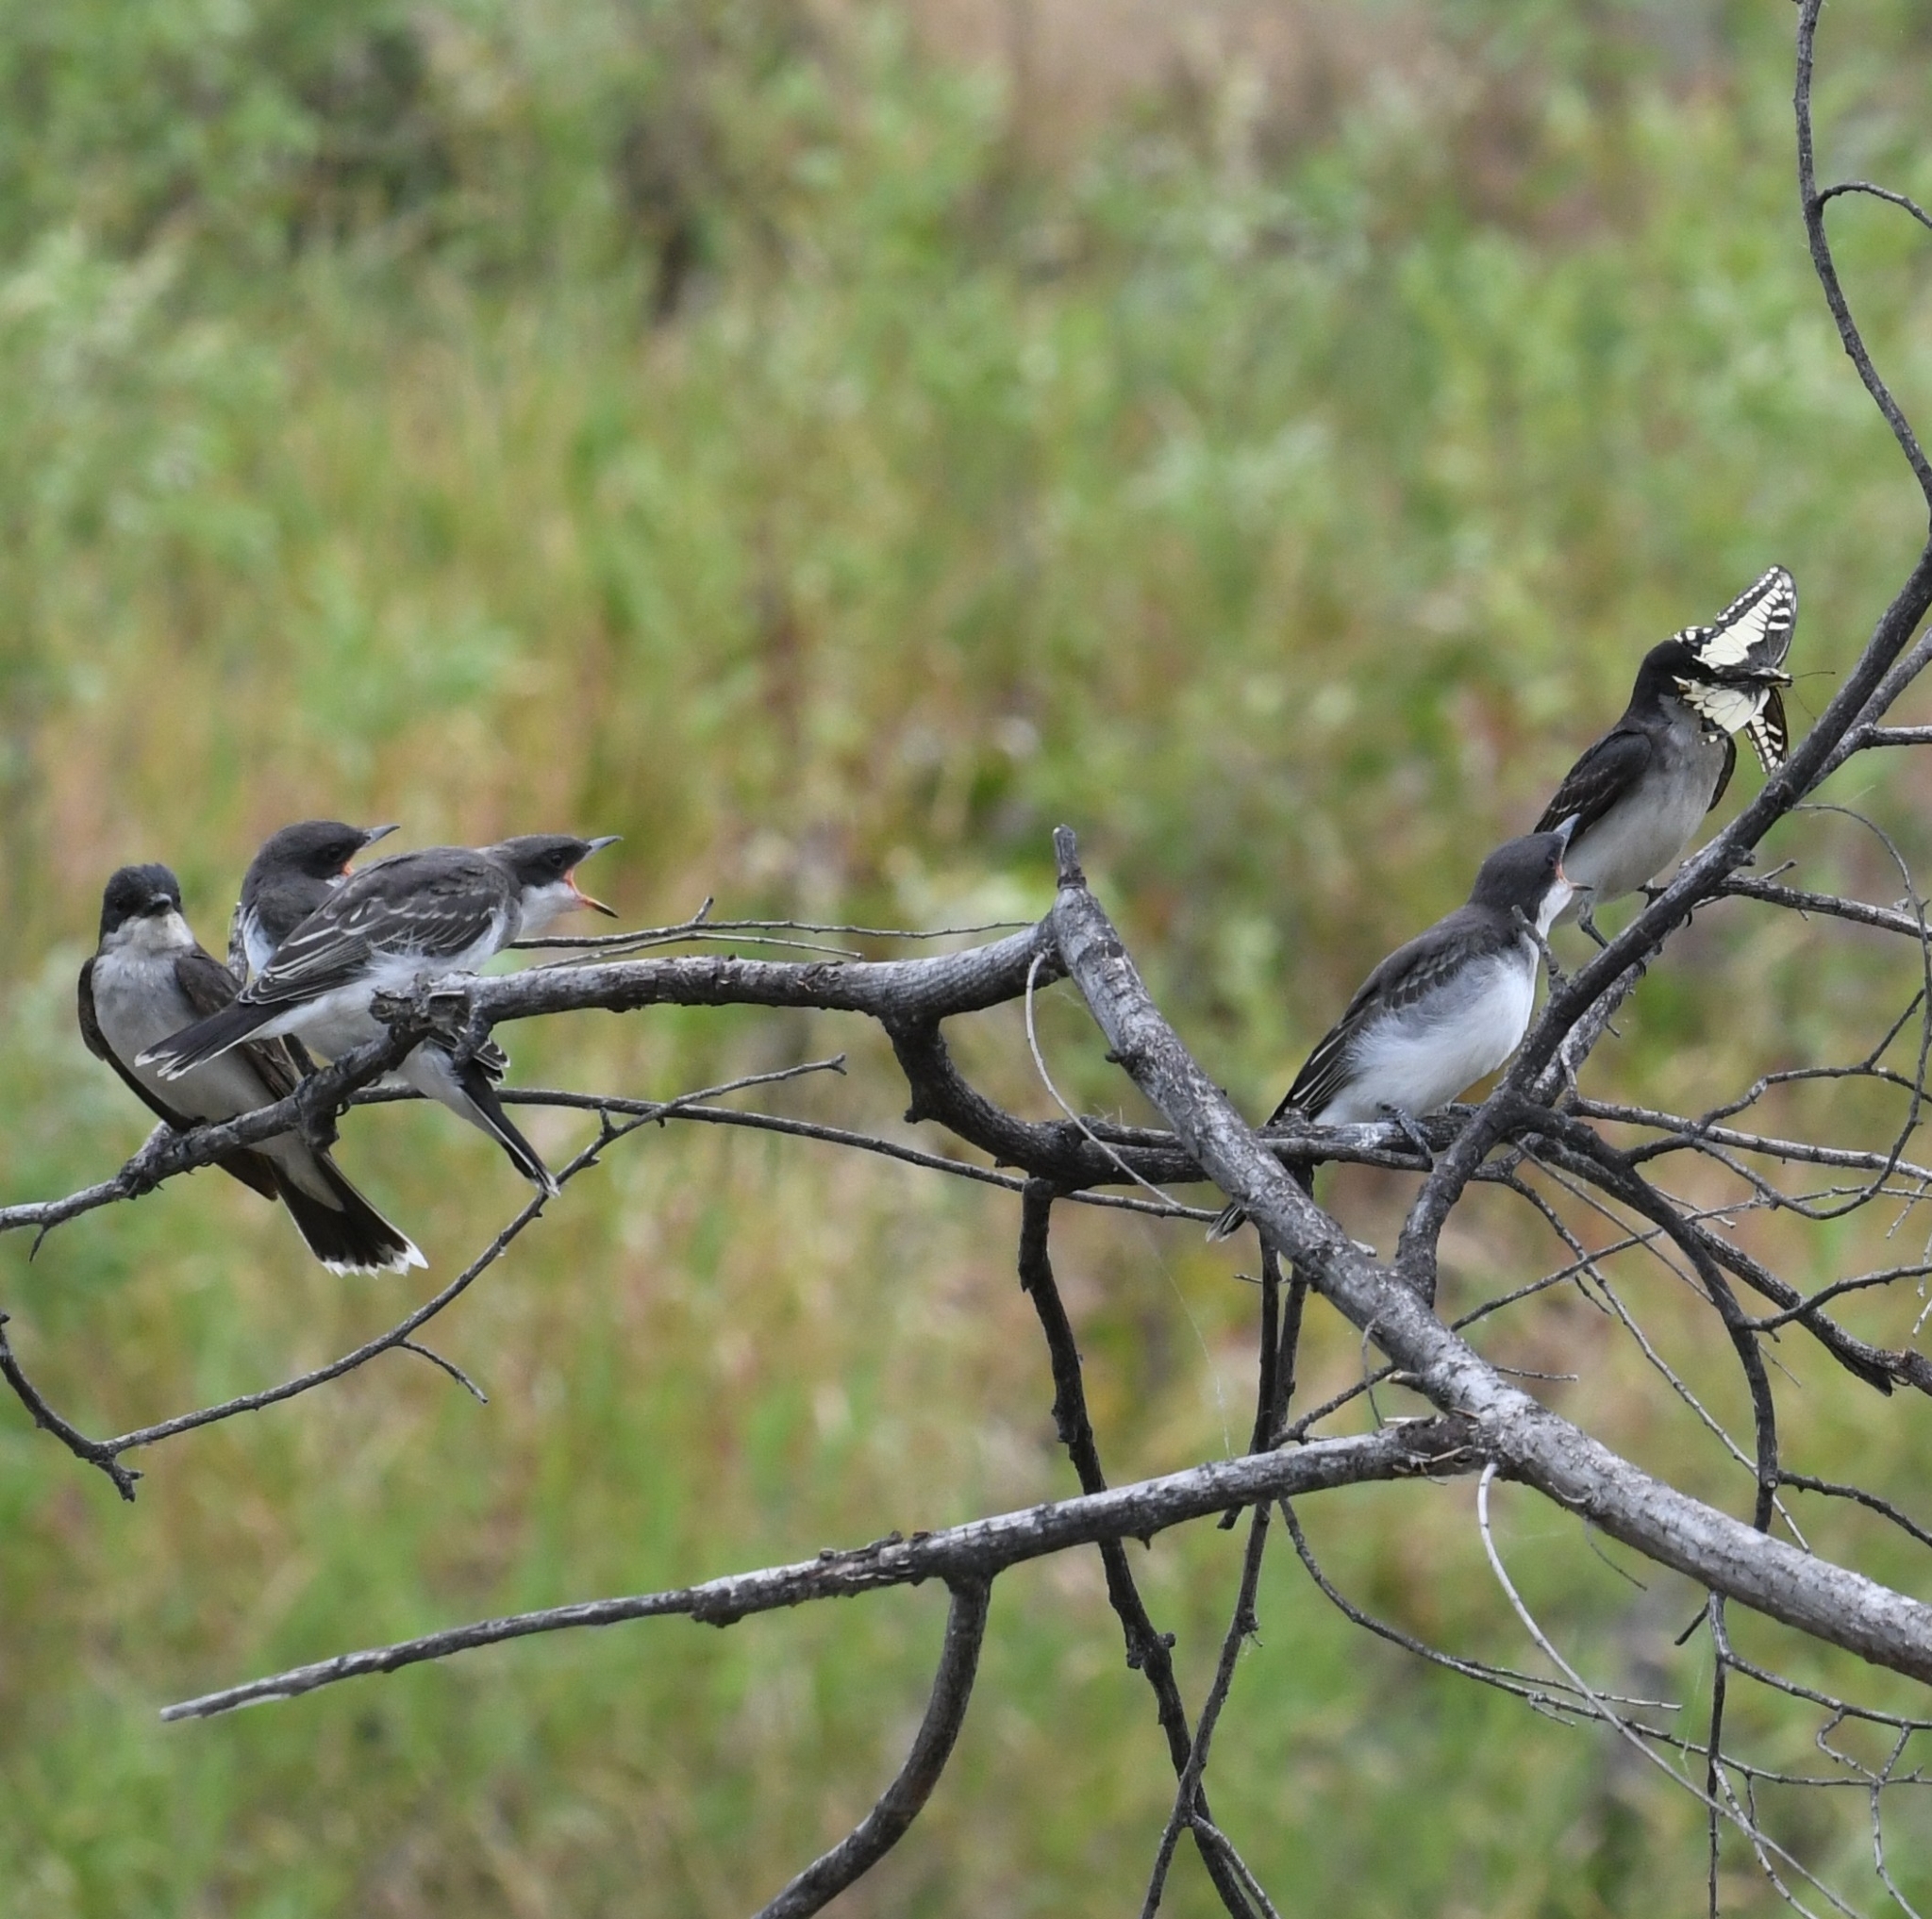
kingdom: Animalia
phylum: Chordata
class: Aves
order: Passeriformes
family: Tyrannidae
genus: Tyrannus
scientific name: Tyrannus tyrannus
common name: Eastern kingbird
